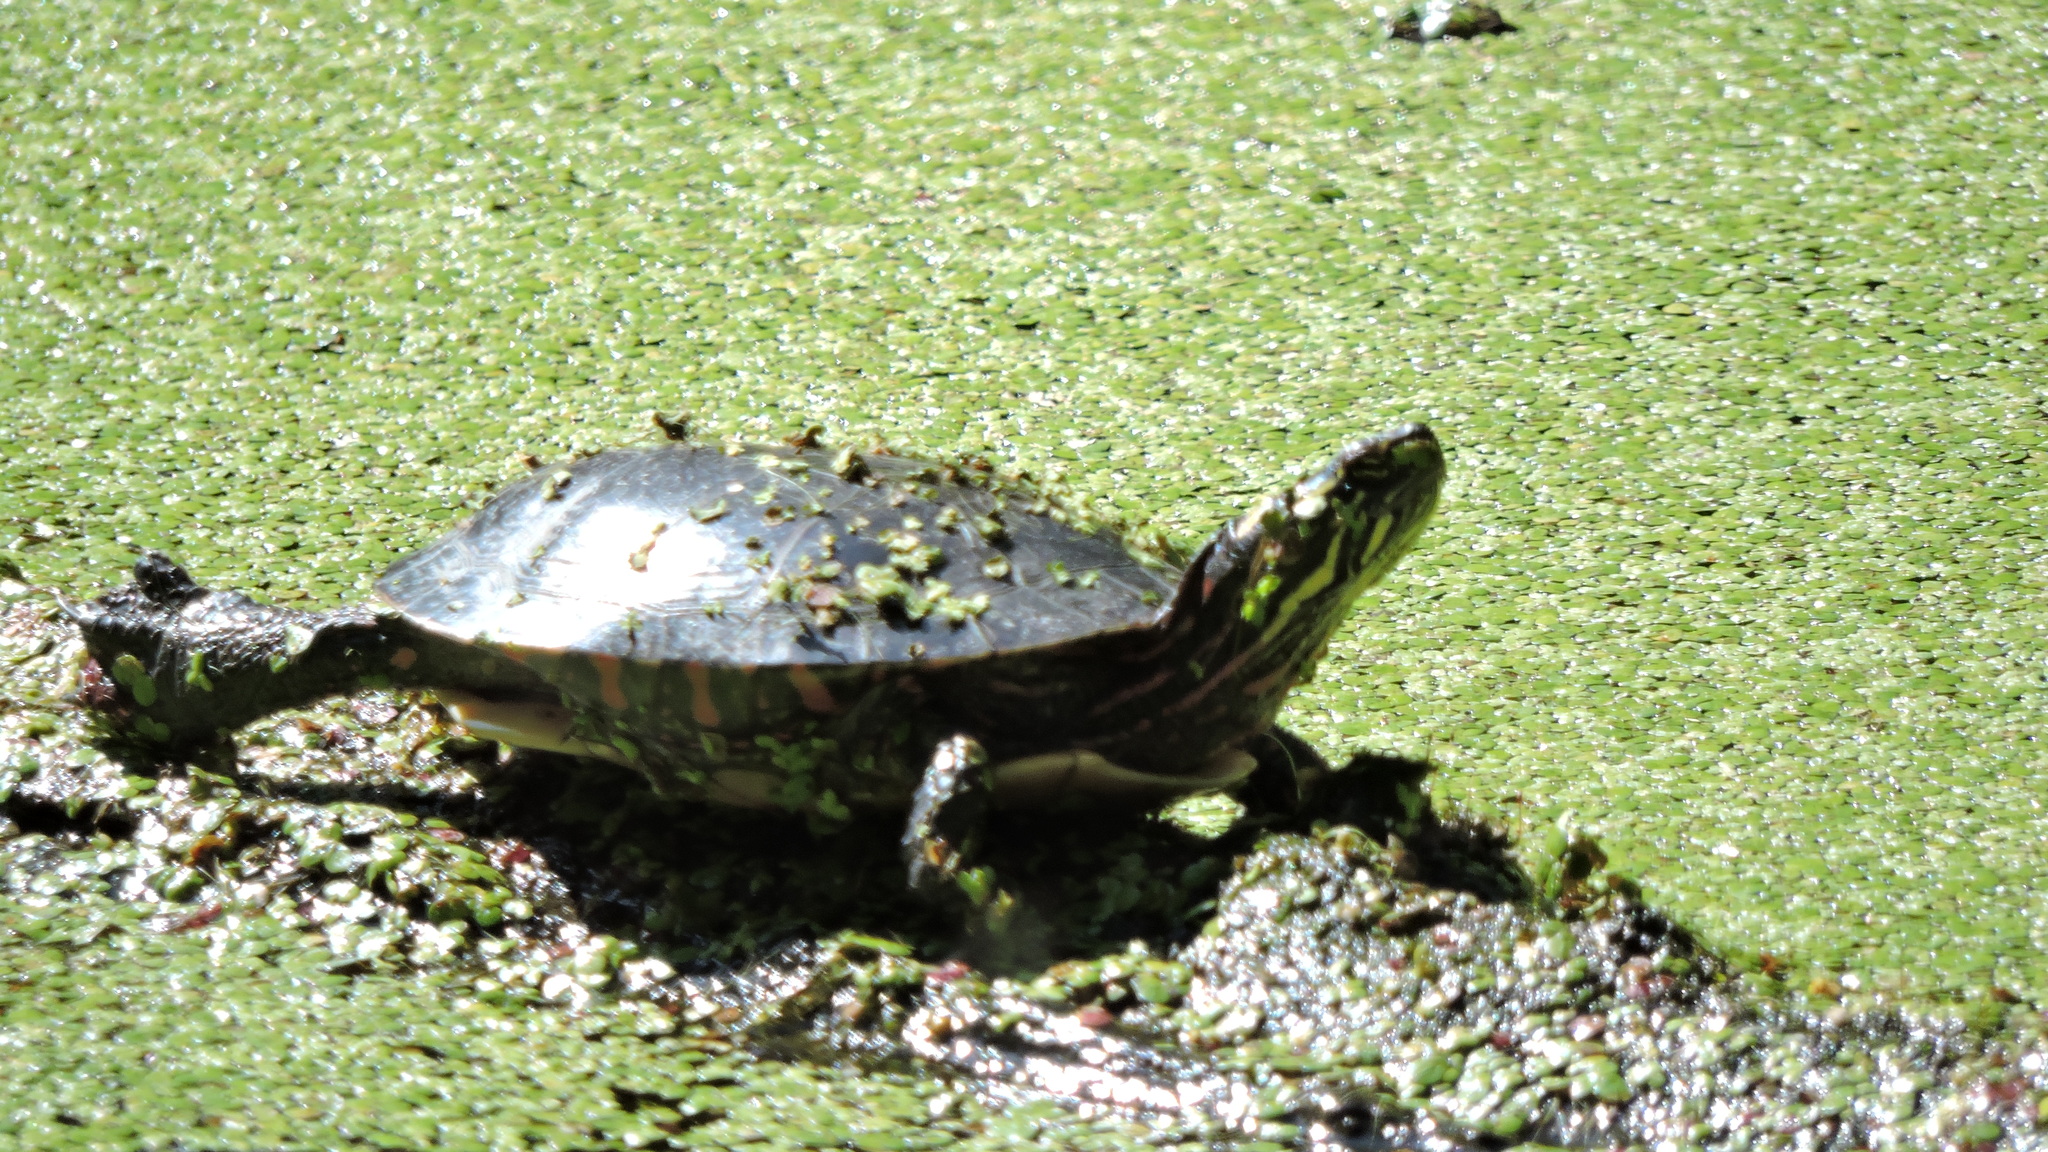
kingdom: Animalia
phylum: Chordata
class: Testudines
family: Emydidae
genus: Chrysemys
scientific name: Chrysemys picta
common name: Painted turtle
